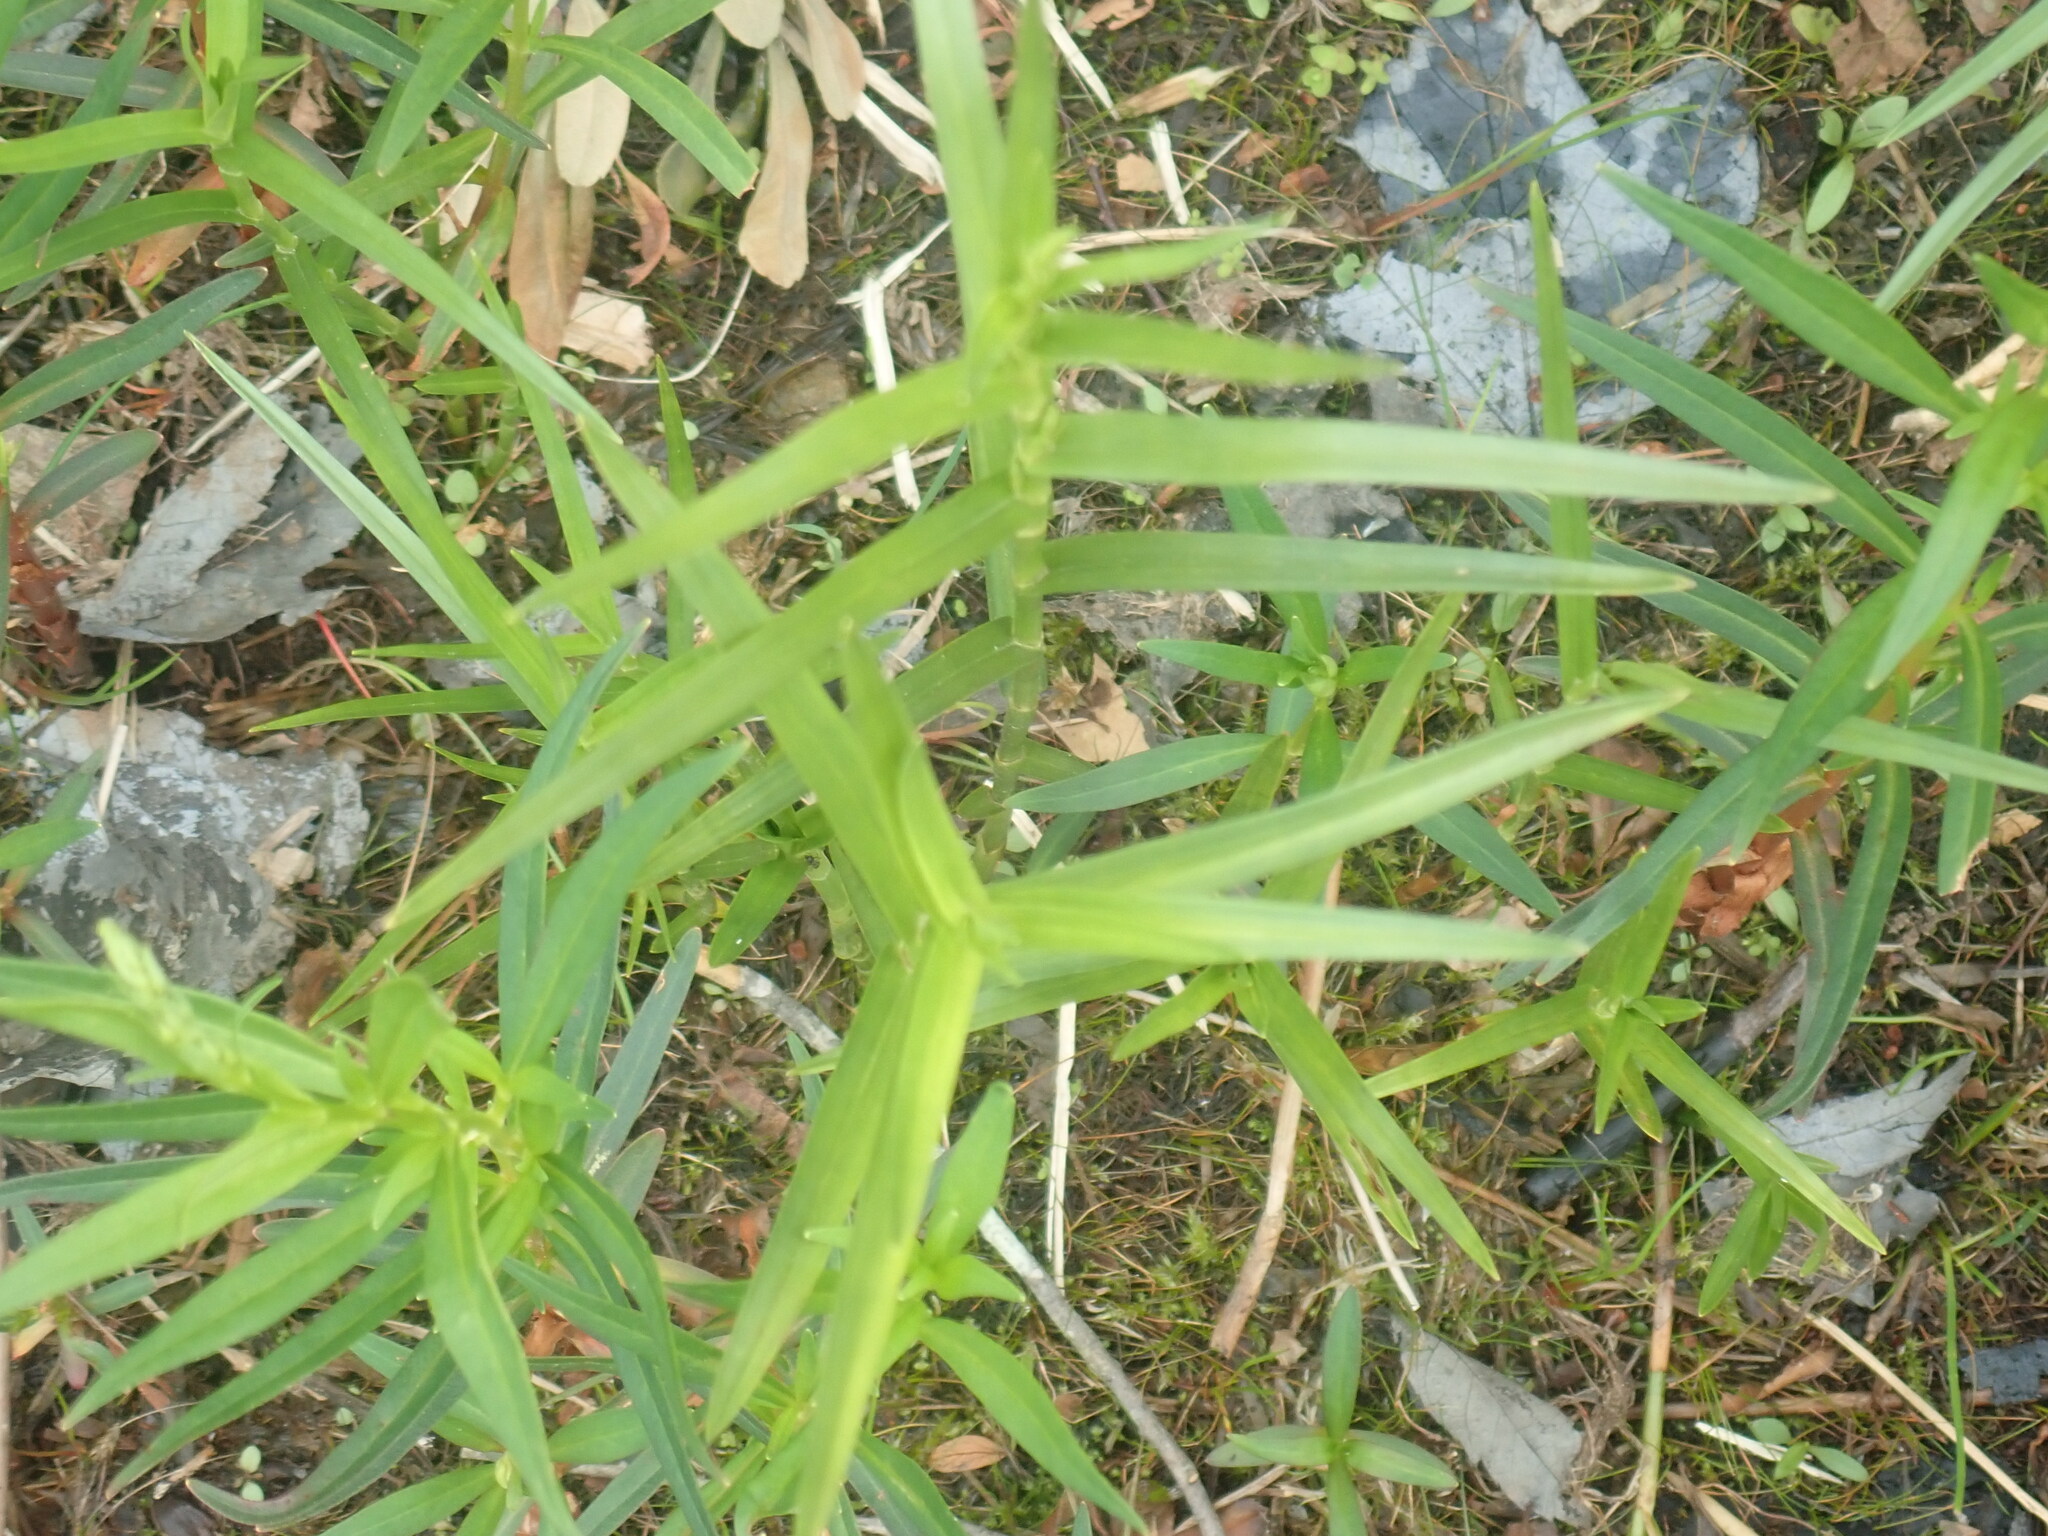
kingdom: Plantae
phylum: Tracheophyta
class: Liliopsida
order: Poales
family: Cyperaceae
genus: Dulichium
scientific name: Dulichium arundinaceum
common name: Three-way sedge
